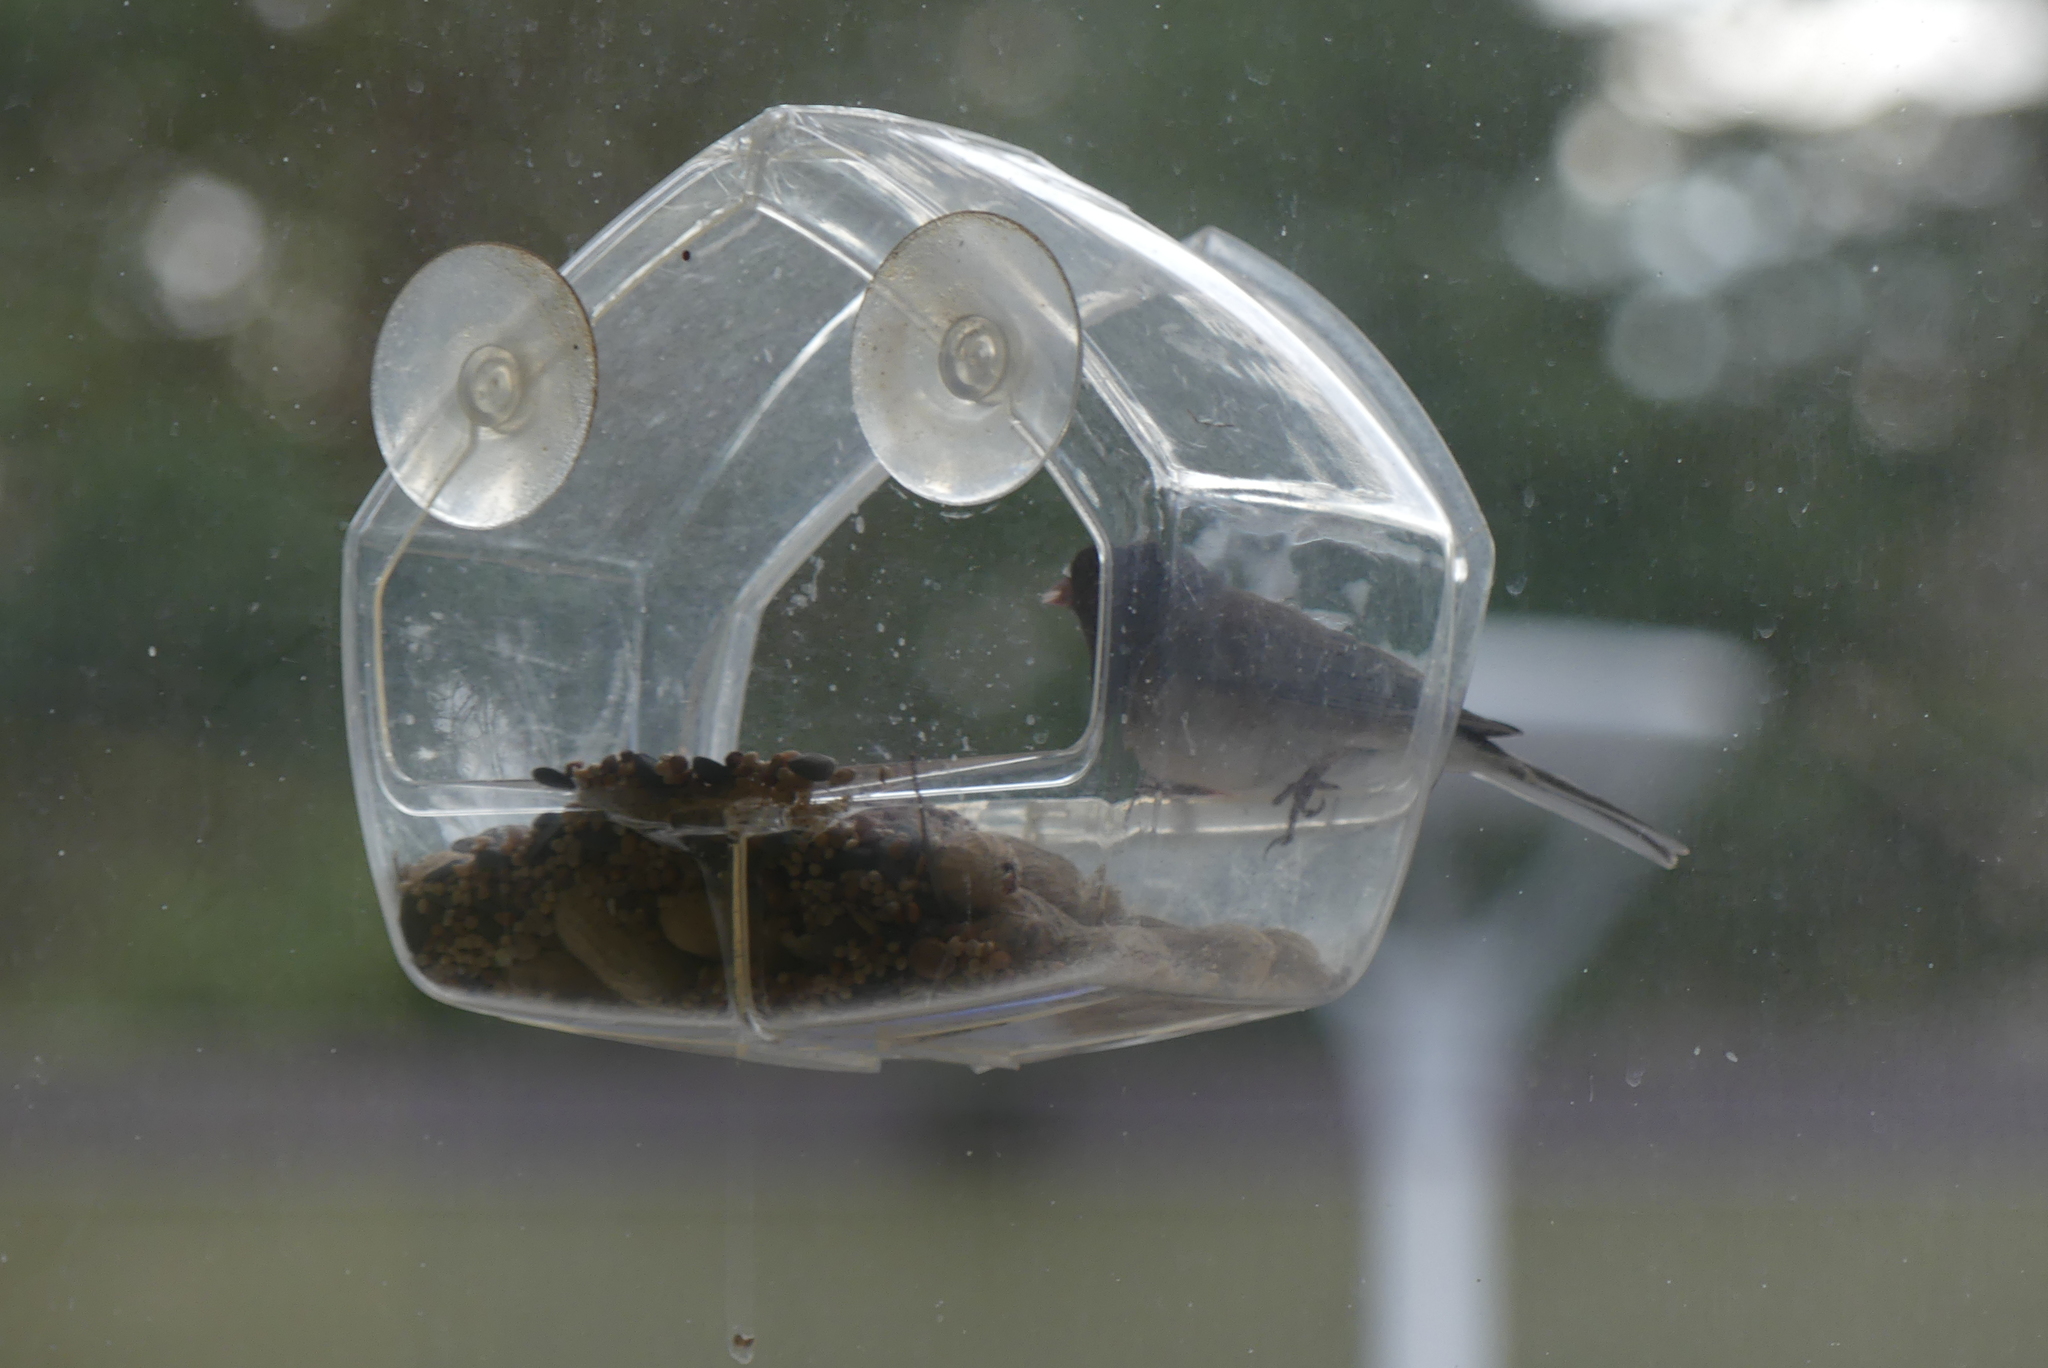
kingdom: Animalia
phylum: Chordata
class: Aves
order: Passeriformes
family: Passerellidae
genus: Junco
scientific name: Junco hyemalis
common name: Dark-eyed junco
